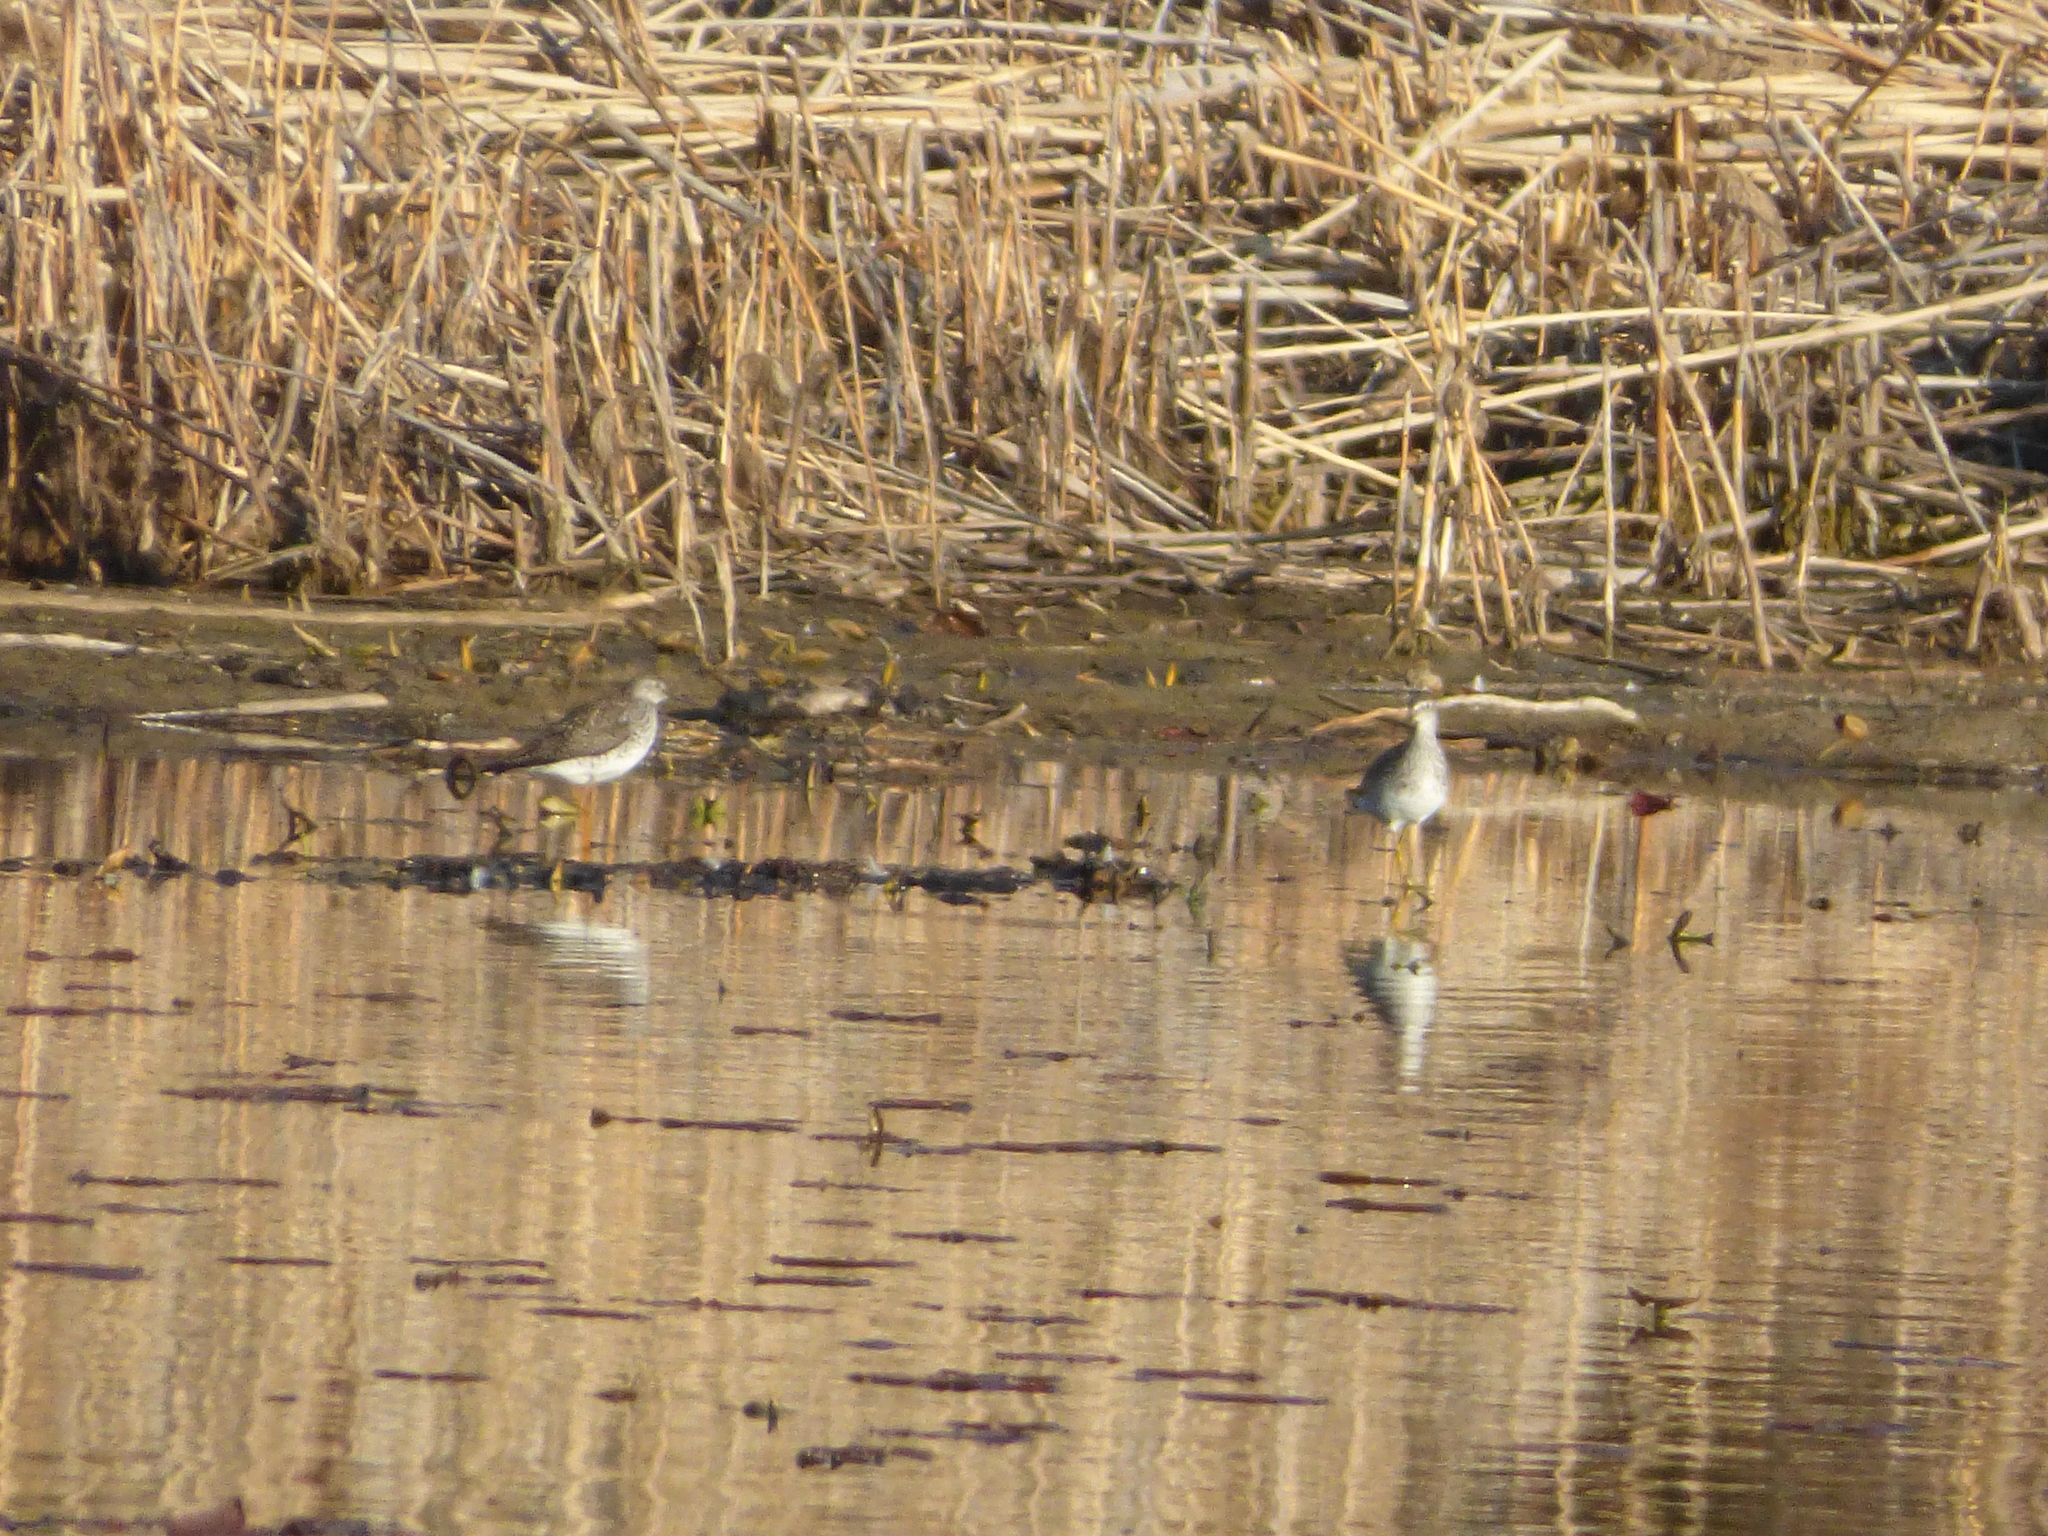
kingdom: Animalia
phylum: Chordata
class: Aves
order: Charadriiformes
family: Scolopacidae
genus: Tringa
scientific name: Tringa flavipes
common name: Lesser yellowlegs
